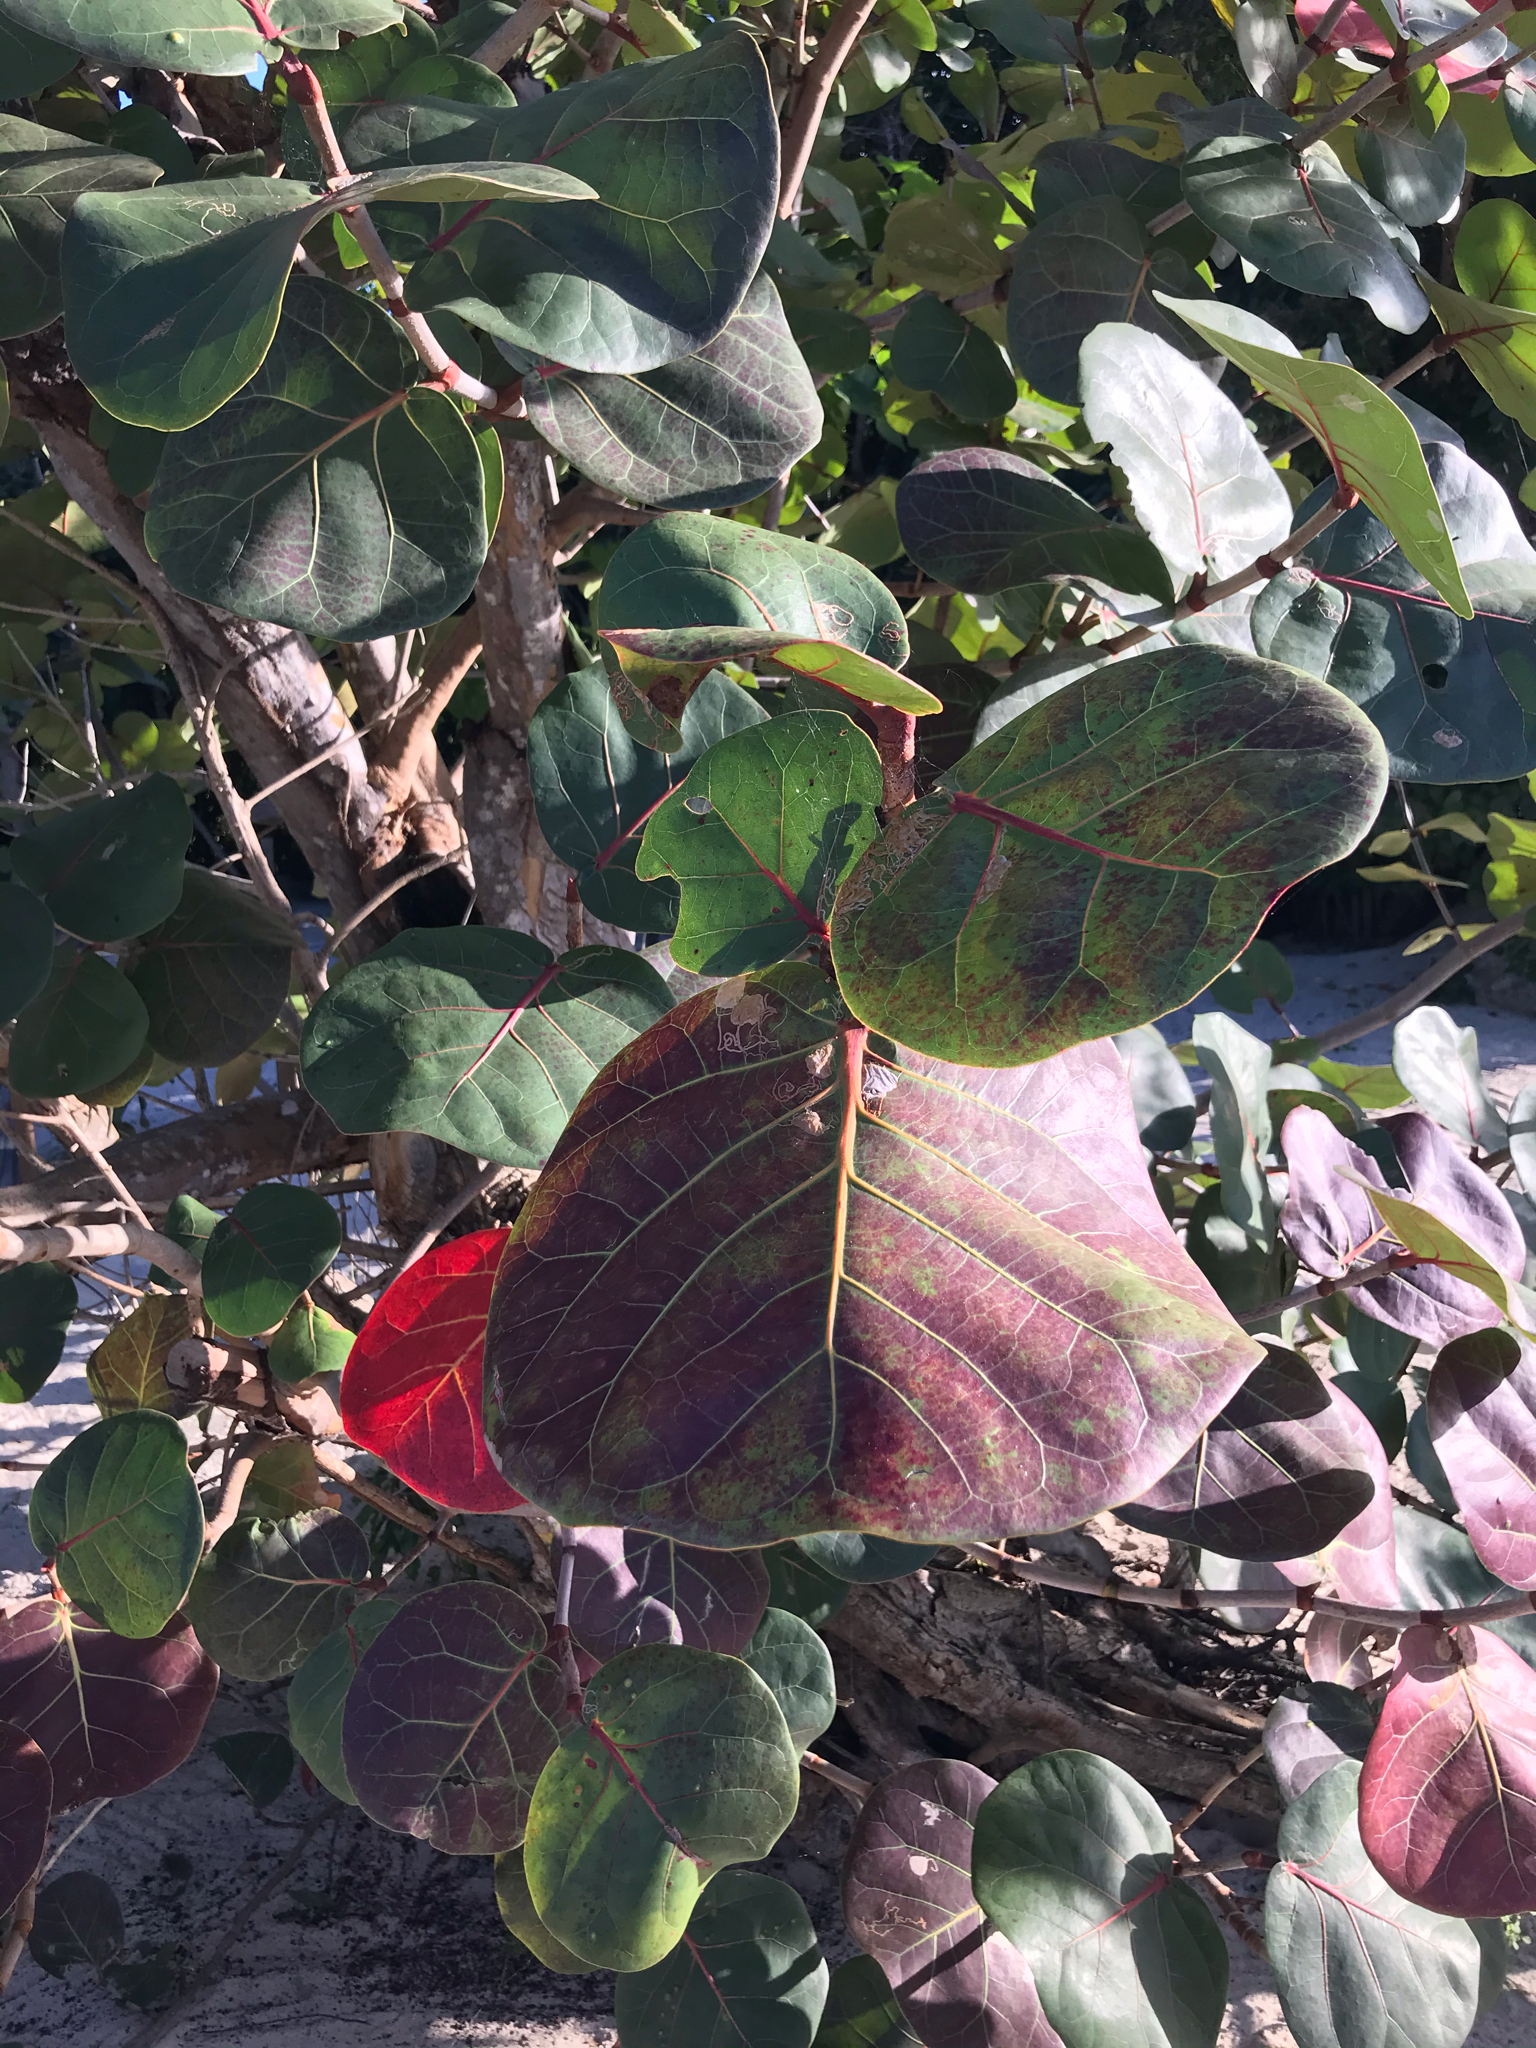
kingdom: Plantae
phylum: Tracheophyta
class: Magnoliopsida
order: Caryophyllales
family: Polygonaceae
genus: Coccoloba
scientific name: Coccoloba uvifera
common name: Seagrape
